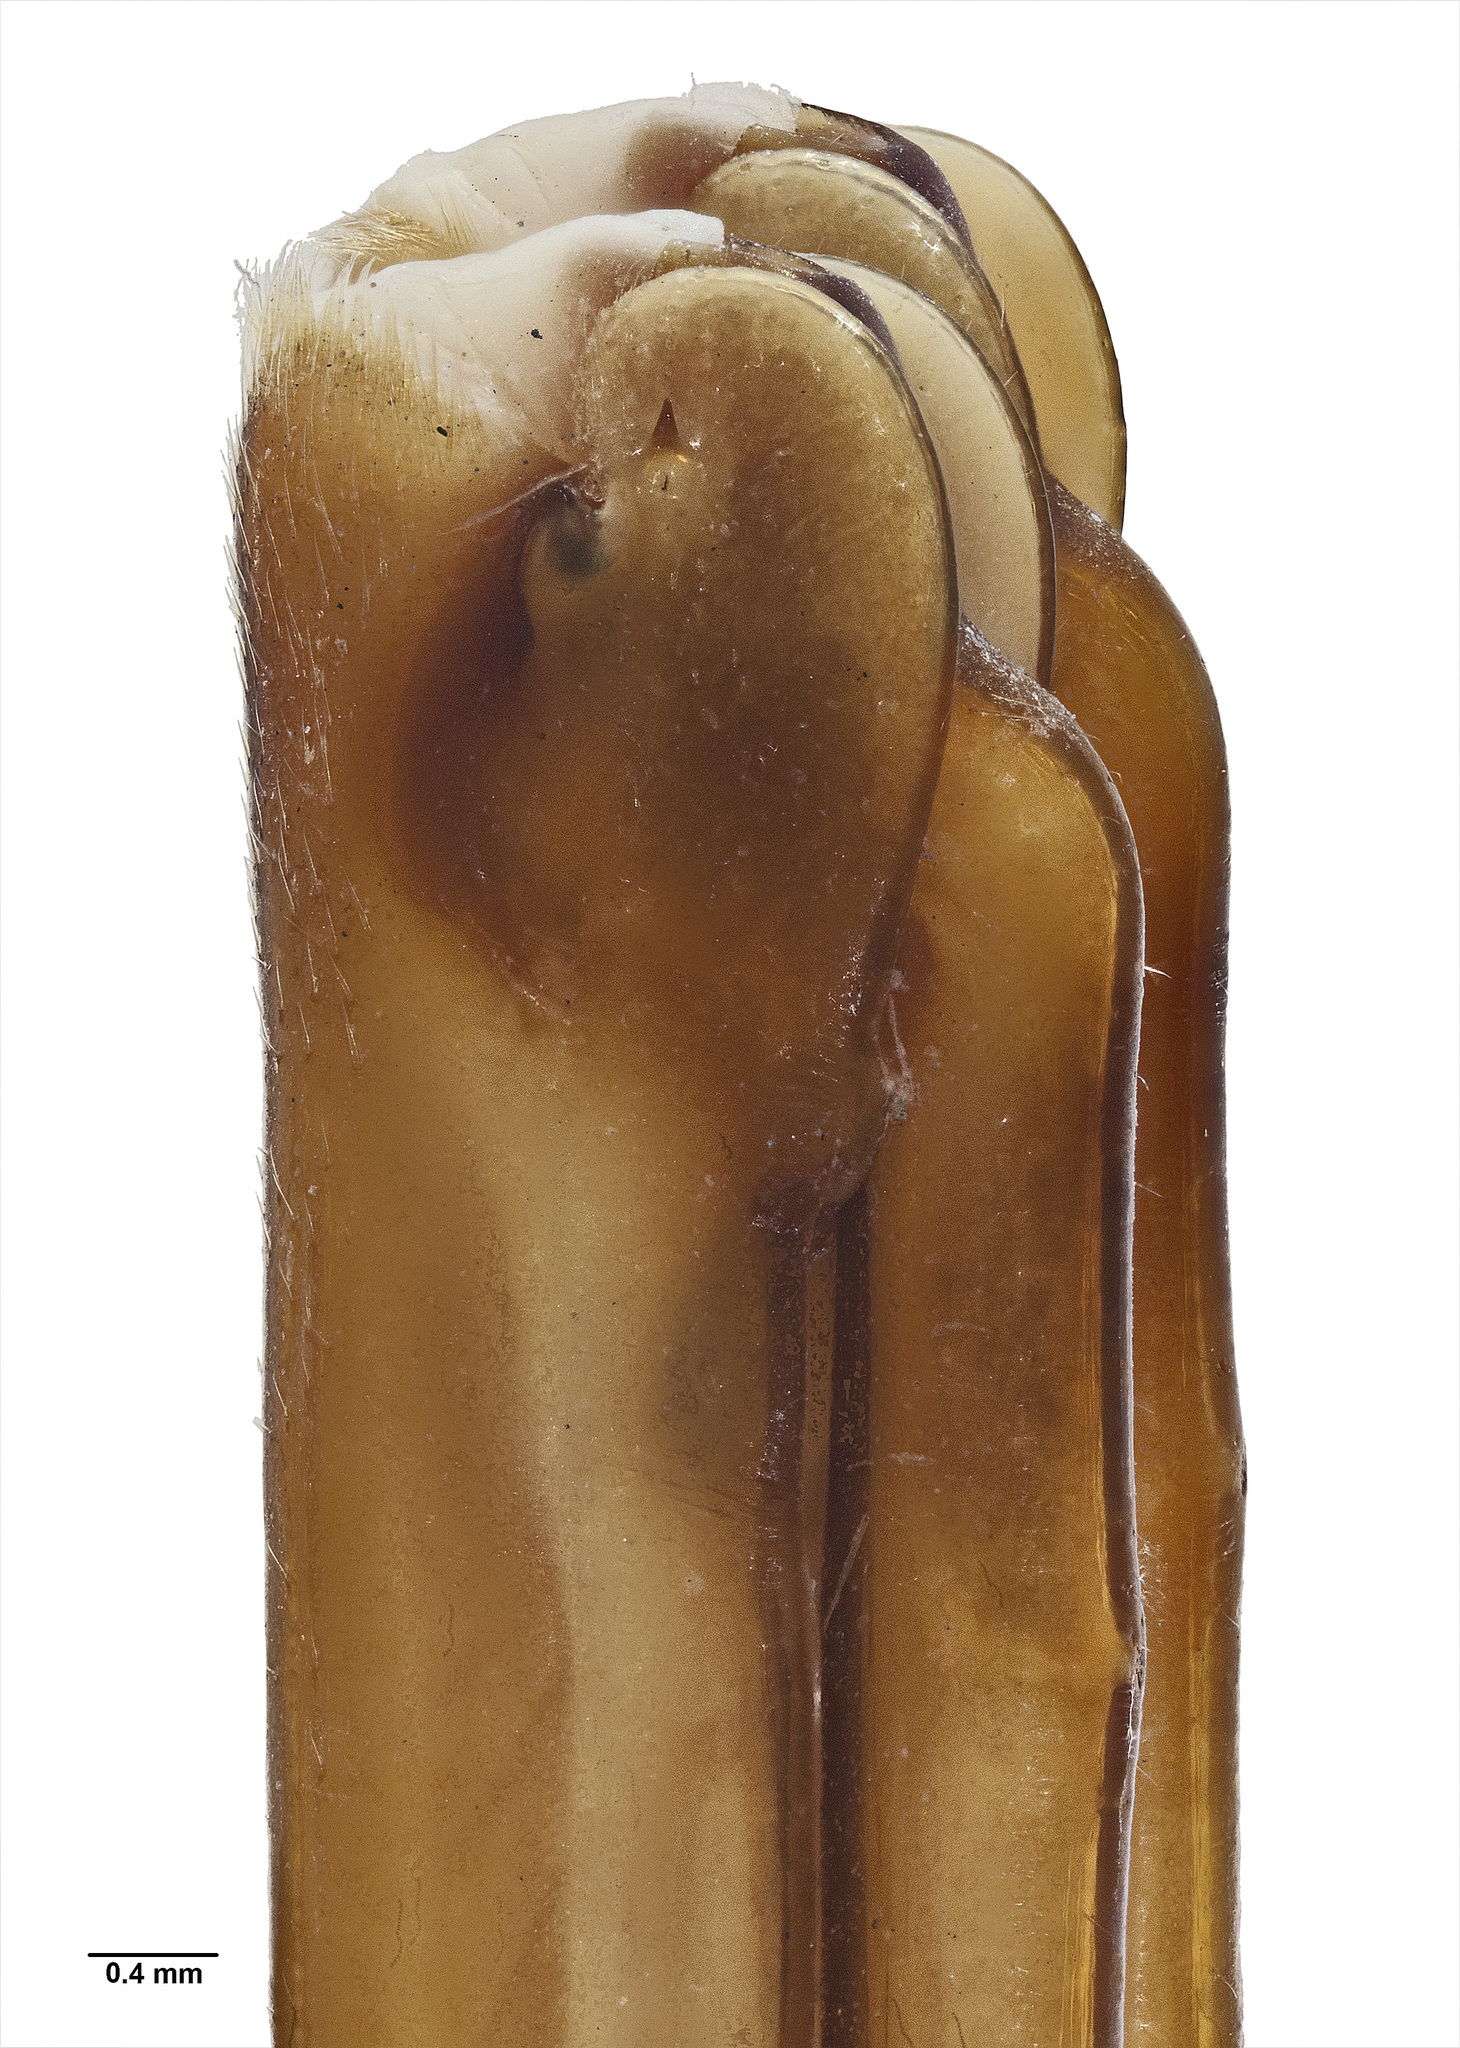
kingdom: Animalia
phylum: Arthropoda
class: Insecta
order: Orthoptera
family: Rhaphidophoridae
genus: Pachyrhamma
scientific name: Pachyrhamma waitomoensis
